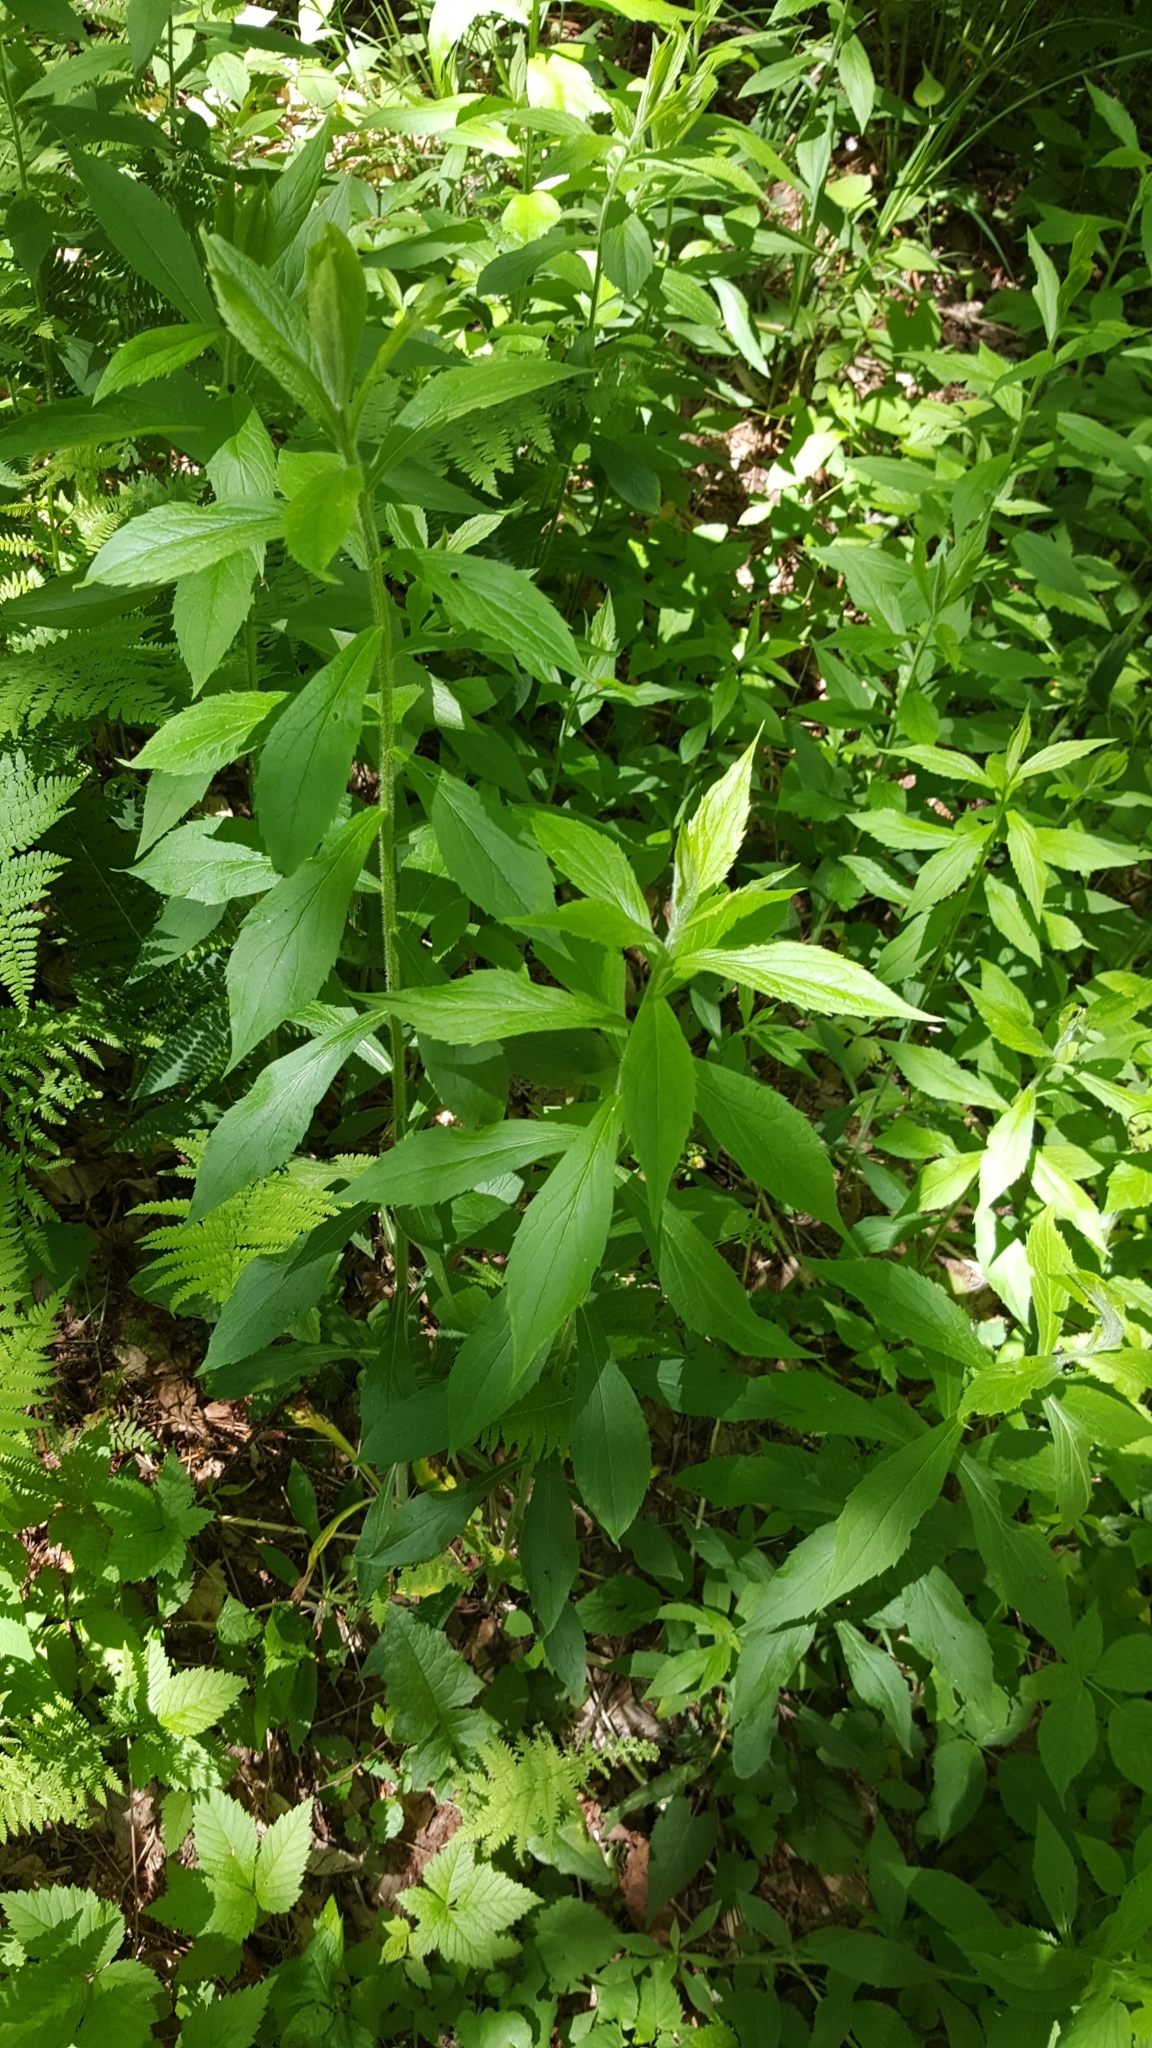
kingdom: Plantae
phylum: Tracheophyta
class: Magnoliopsida
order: Asterales
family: Asteraceae
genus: Solidago
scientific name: Solidago rugosa
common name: Rough-stemmed goldenrod
